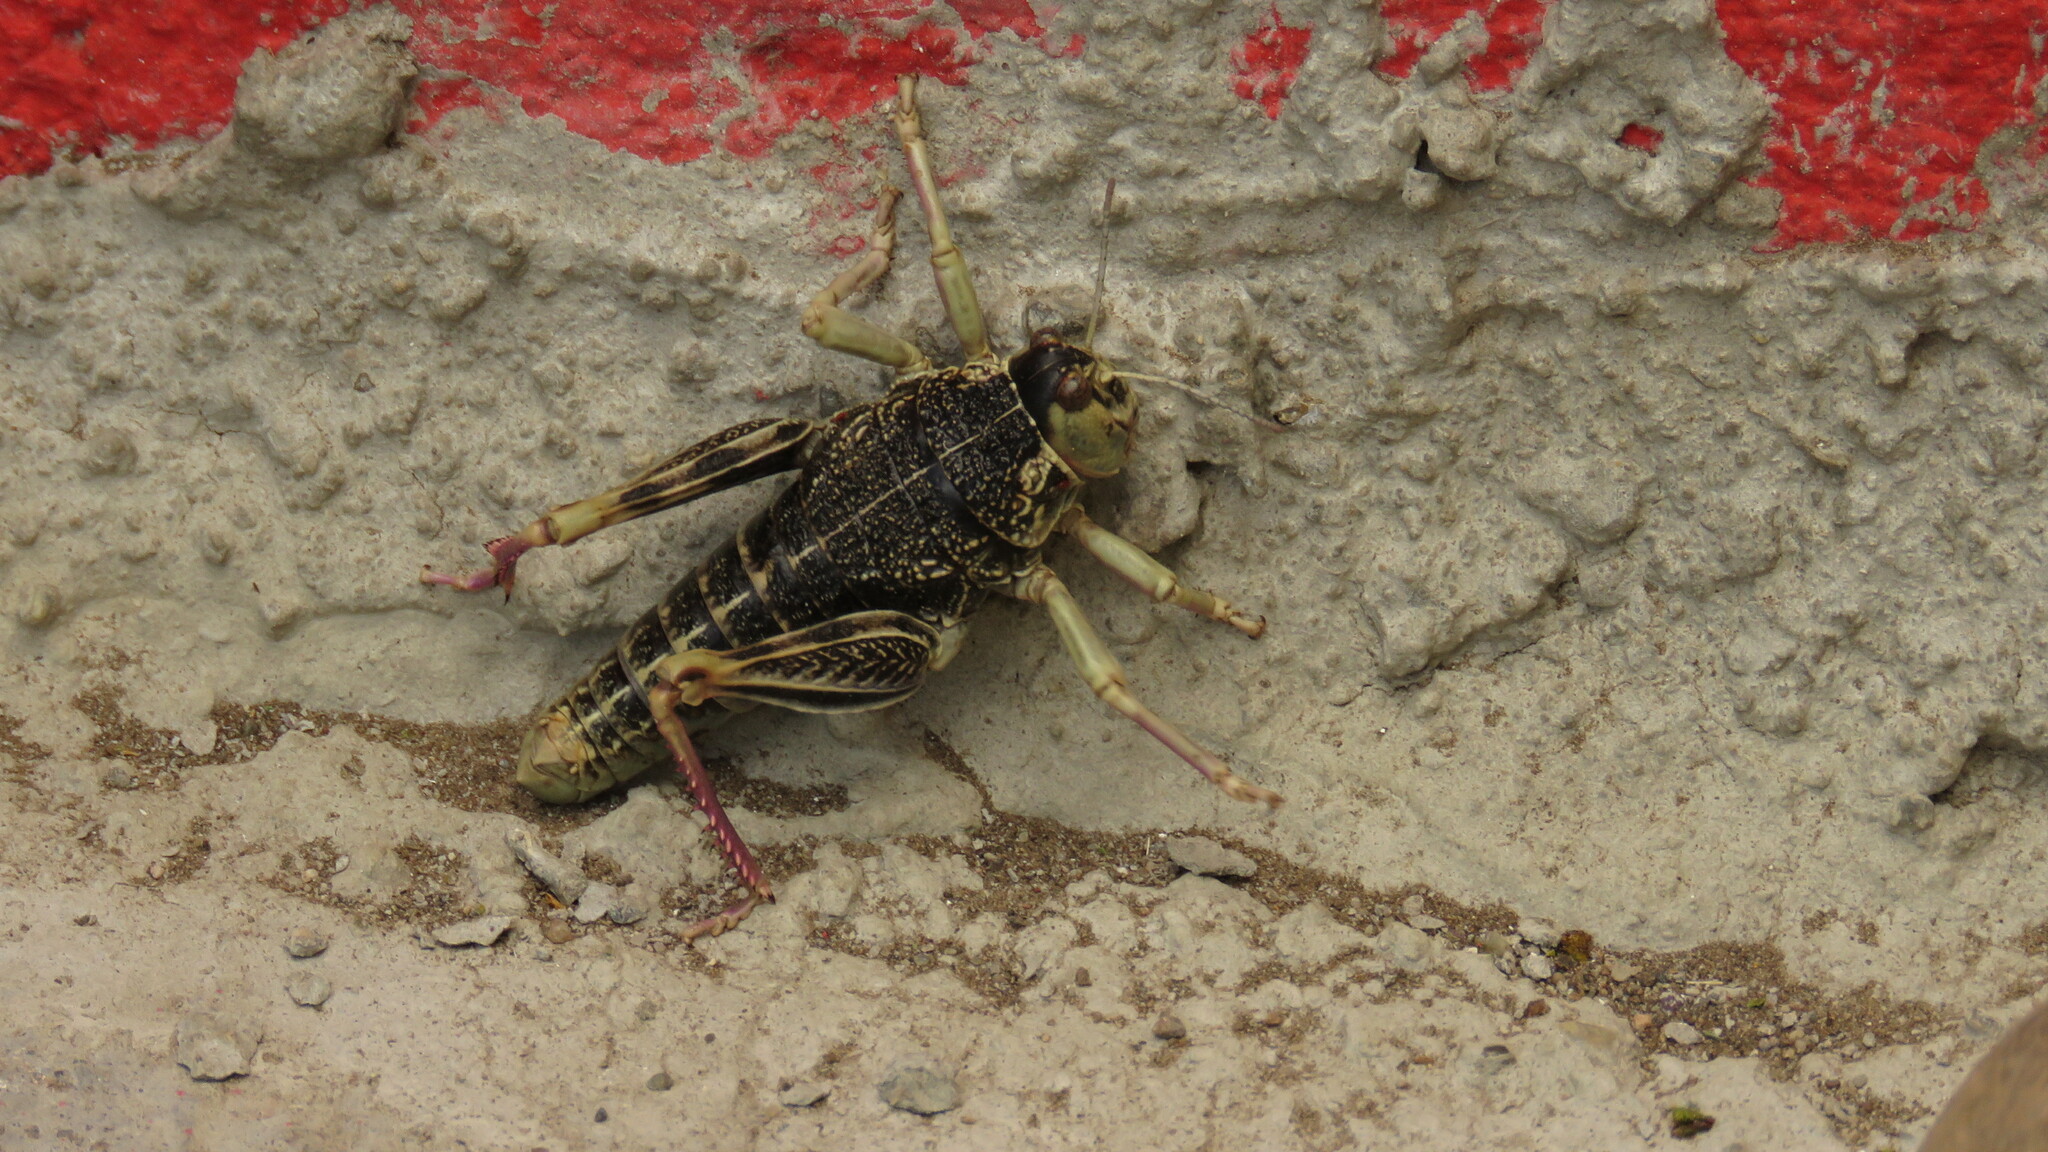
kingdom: Animalia
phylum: Arthropoda
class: Insecta
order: Orthoptera
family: Tristiridae
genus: Bufonacris
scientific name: Bufonacris claraziana
